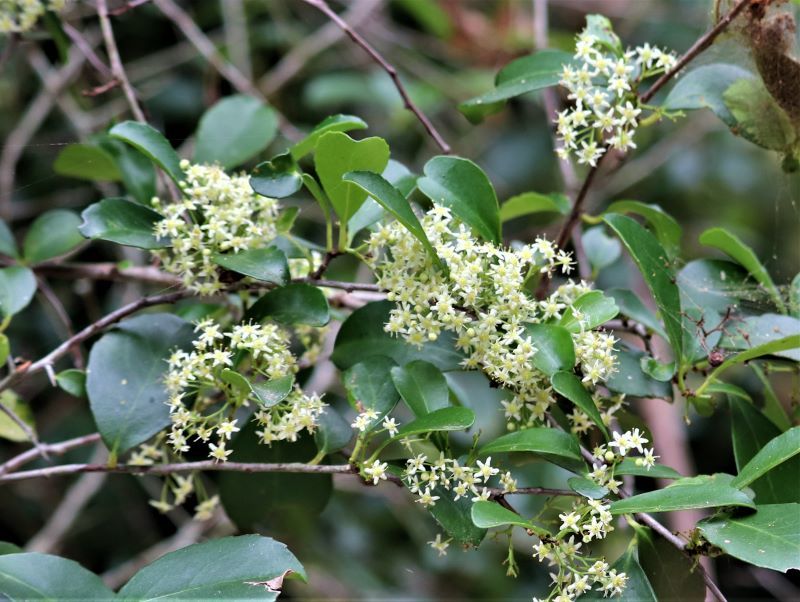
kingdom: Plantae
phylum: Tracheophyta
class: Magnoliopsida
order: Celastrales
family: Celastraceae
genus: Gymnosporia
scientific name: Gymnosporia nemorosa
